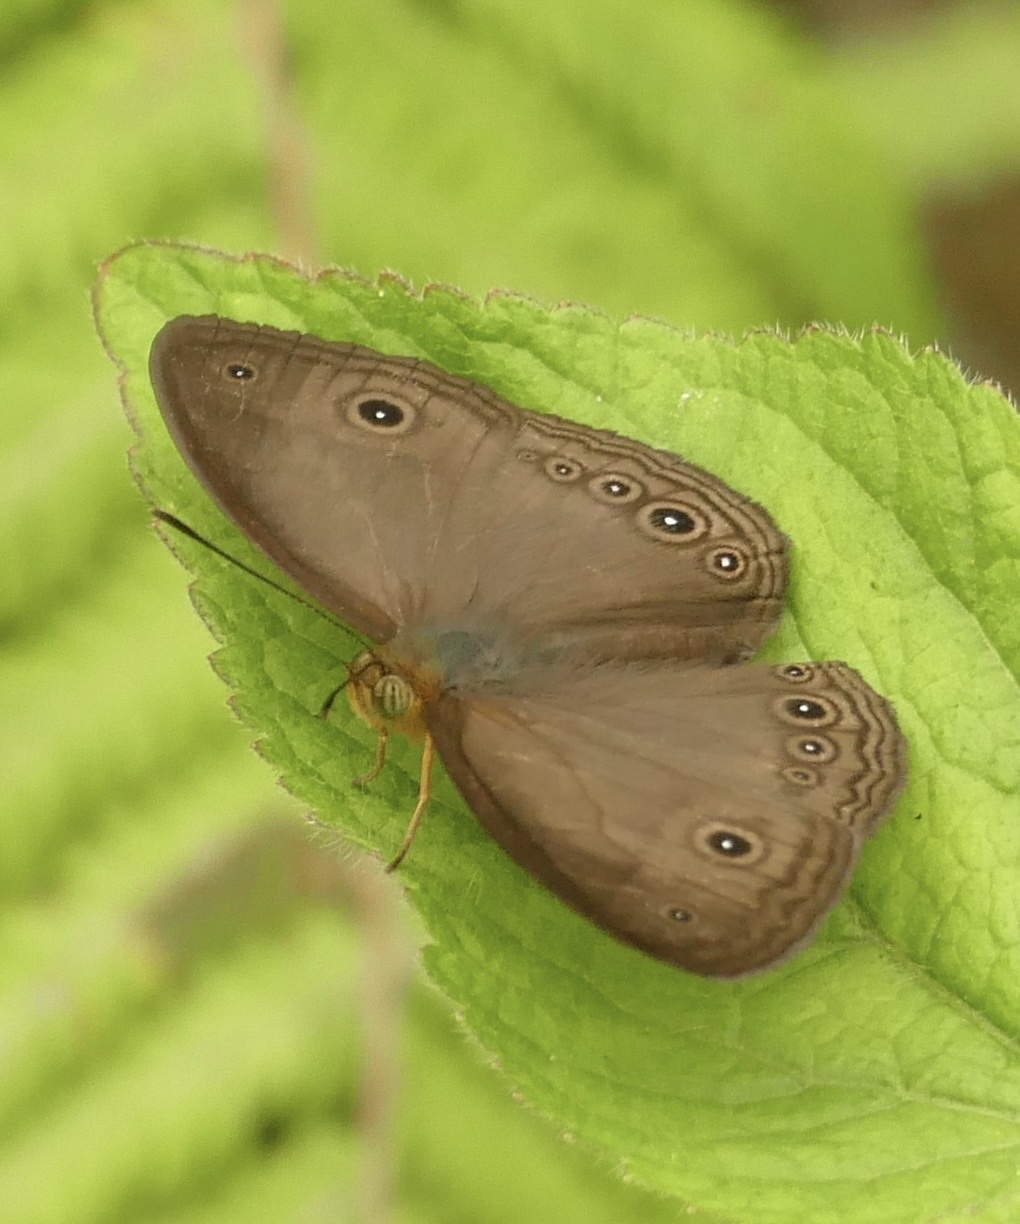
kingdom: Animalia
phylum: Arthropoda
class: Insecta
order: Lepidoptera
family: Nymphalidae
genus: Mycalesis
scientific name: Mycalesis phidon
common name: Hewitson's bushbrown
